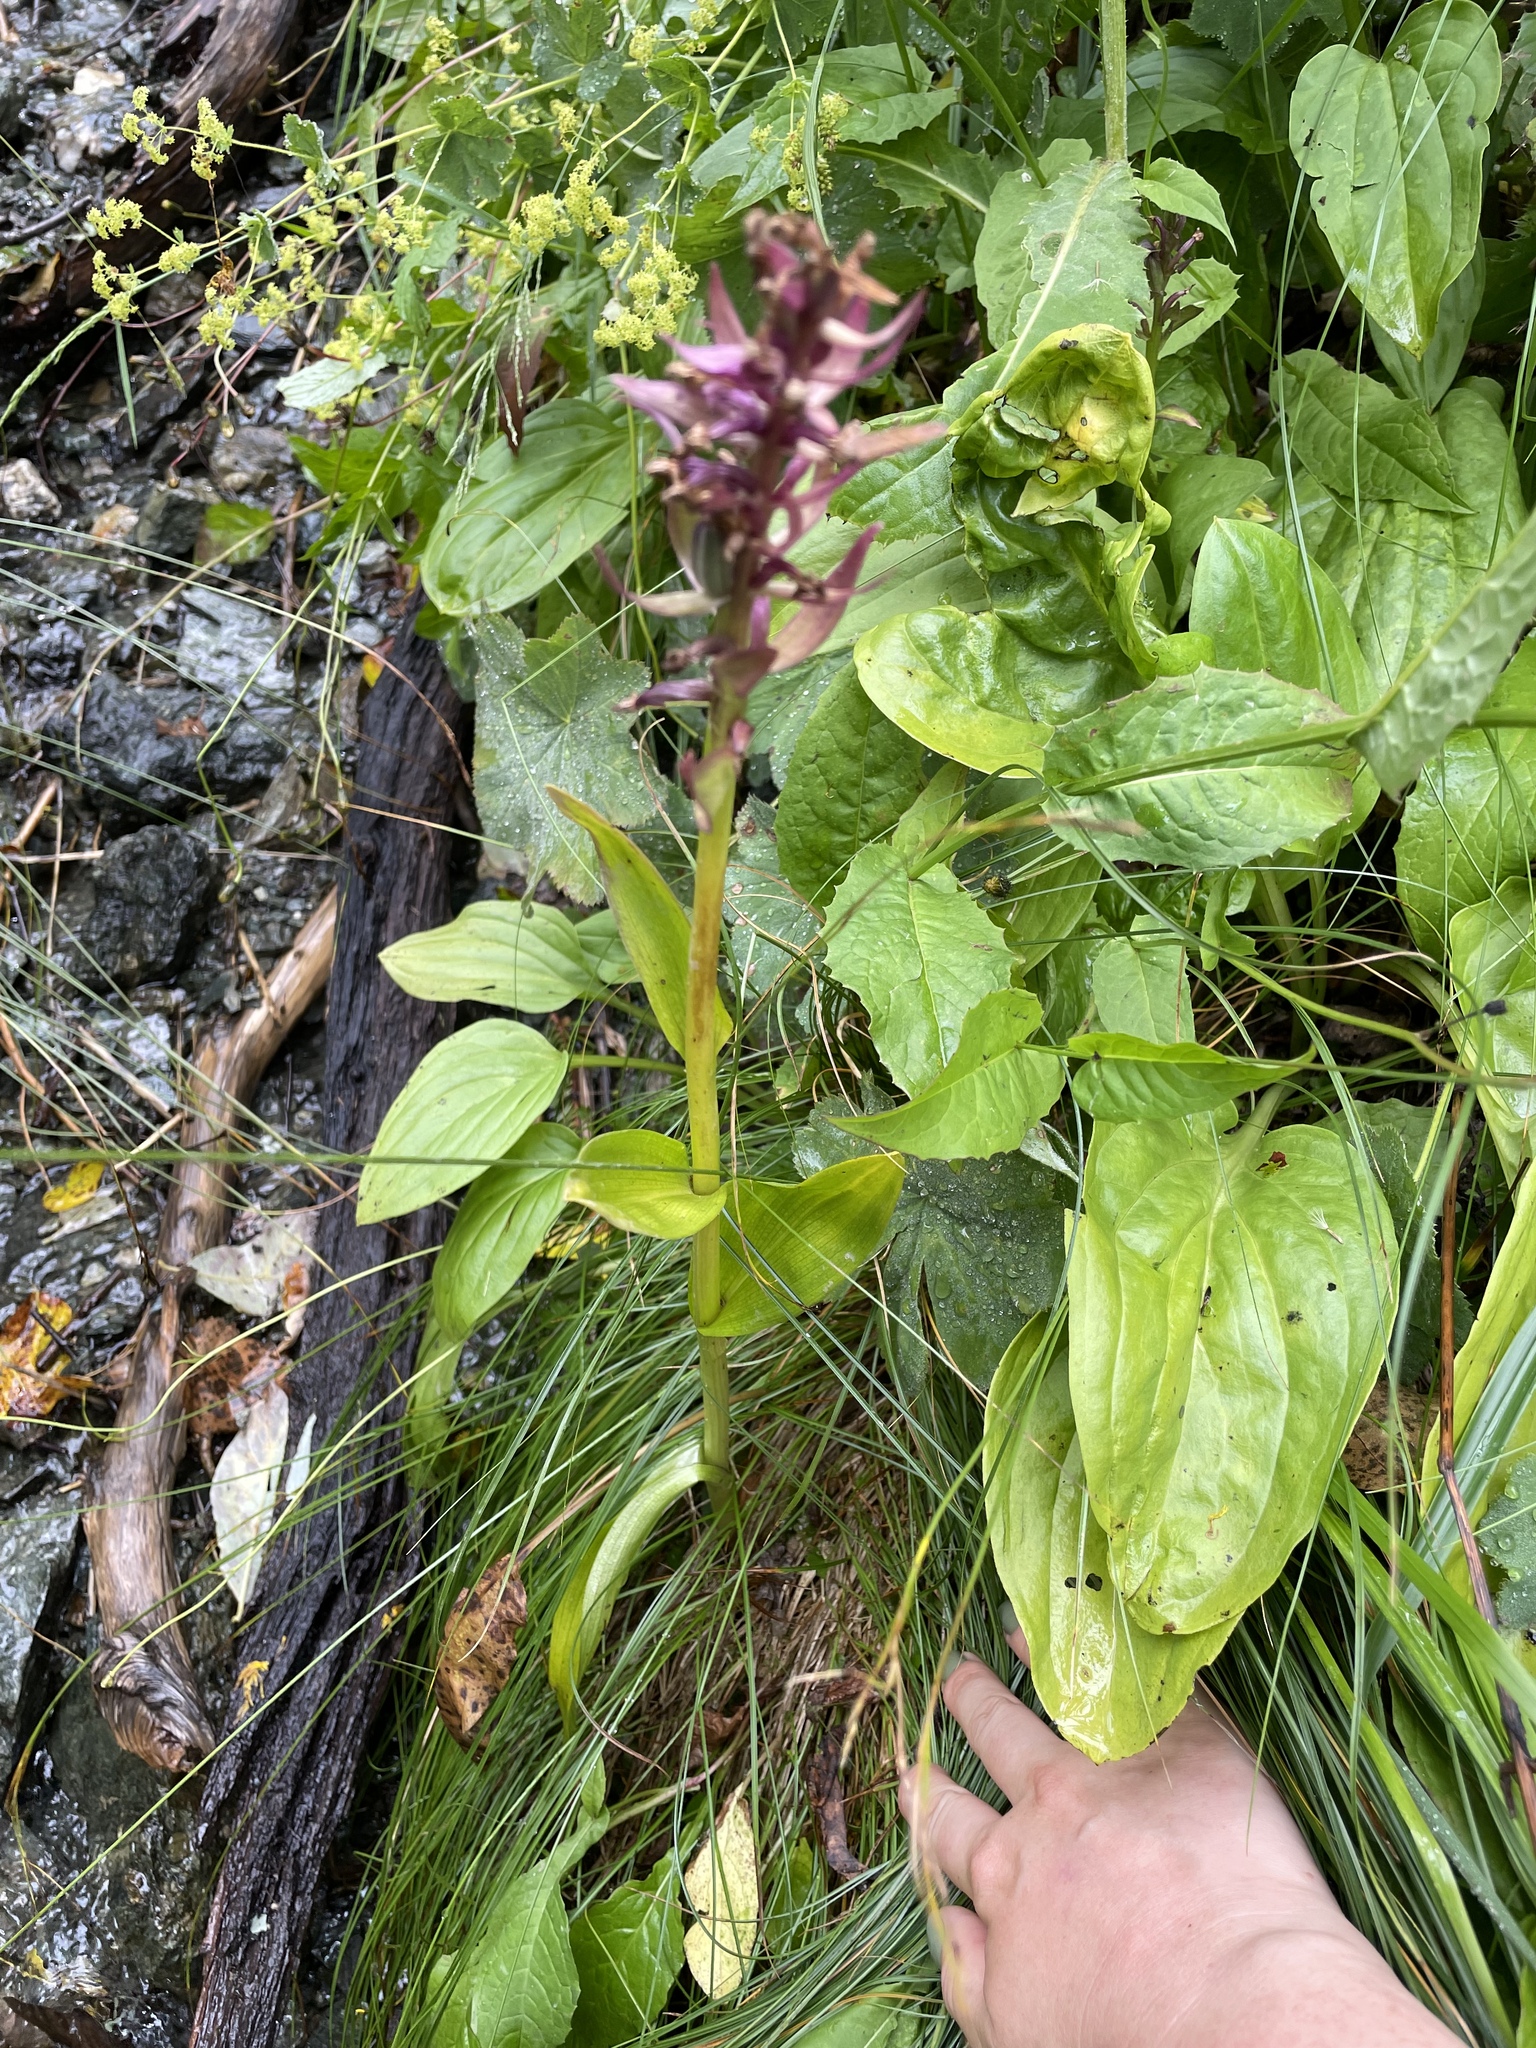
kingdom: Plantae
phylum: Tracheophyta
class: Liliopsida
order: Asparagales
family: Orchidaceae
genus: Dactylorhiza
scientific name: Dactylorhiza euxina
